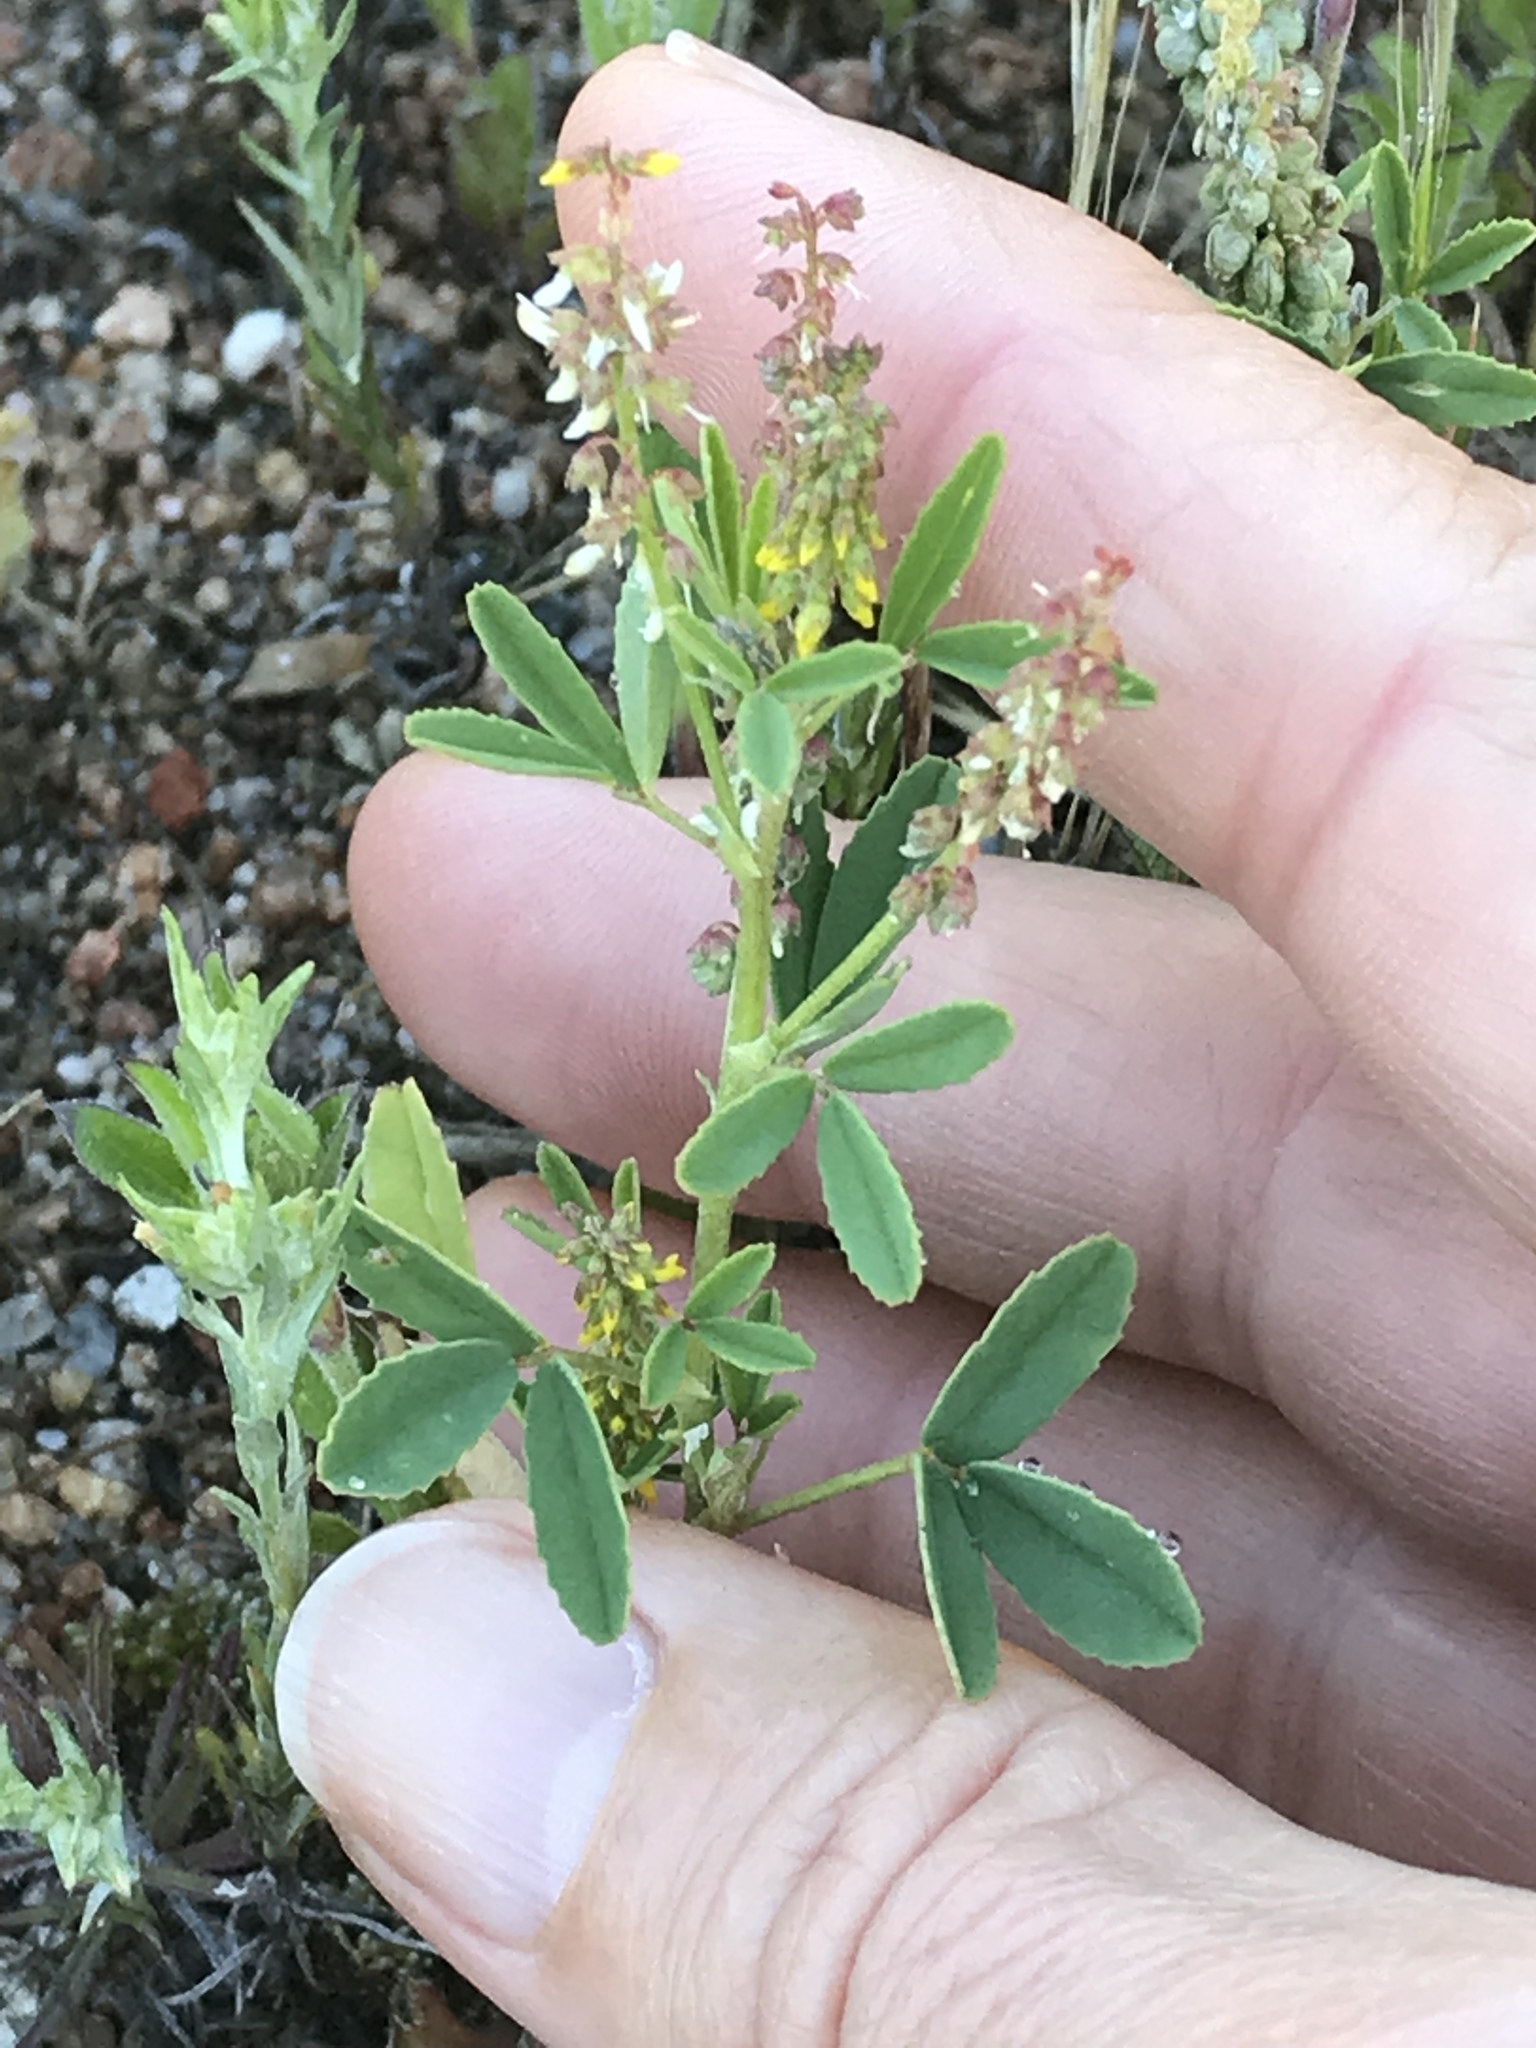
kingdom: Plantae
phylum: Tracheophyta
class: Magnoliopsida
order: Fabales
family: Fabaceae
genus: Melilotus
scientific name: Melilotus indicus
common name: Small melilot
